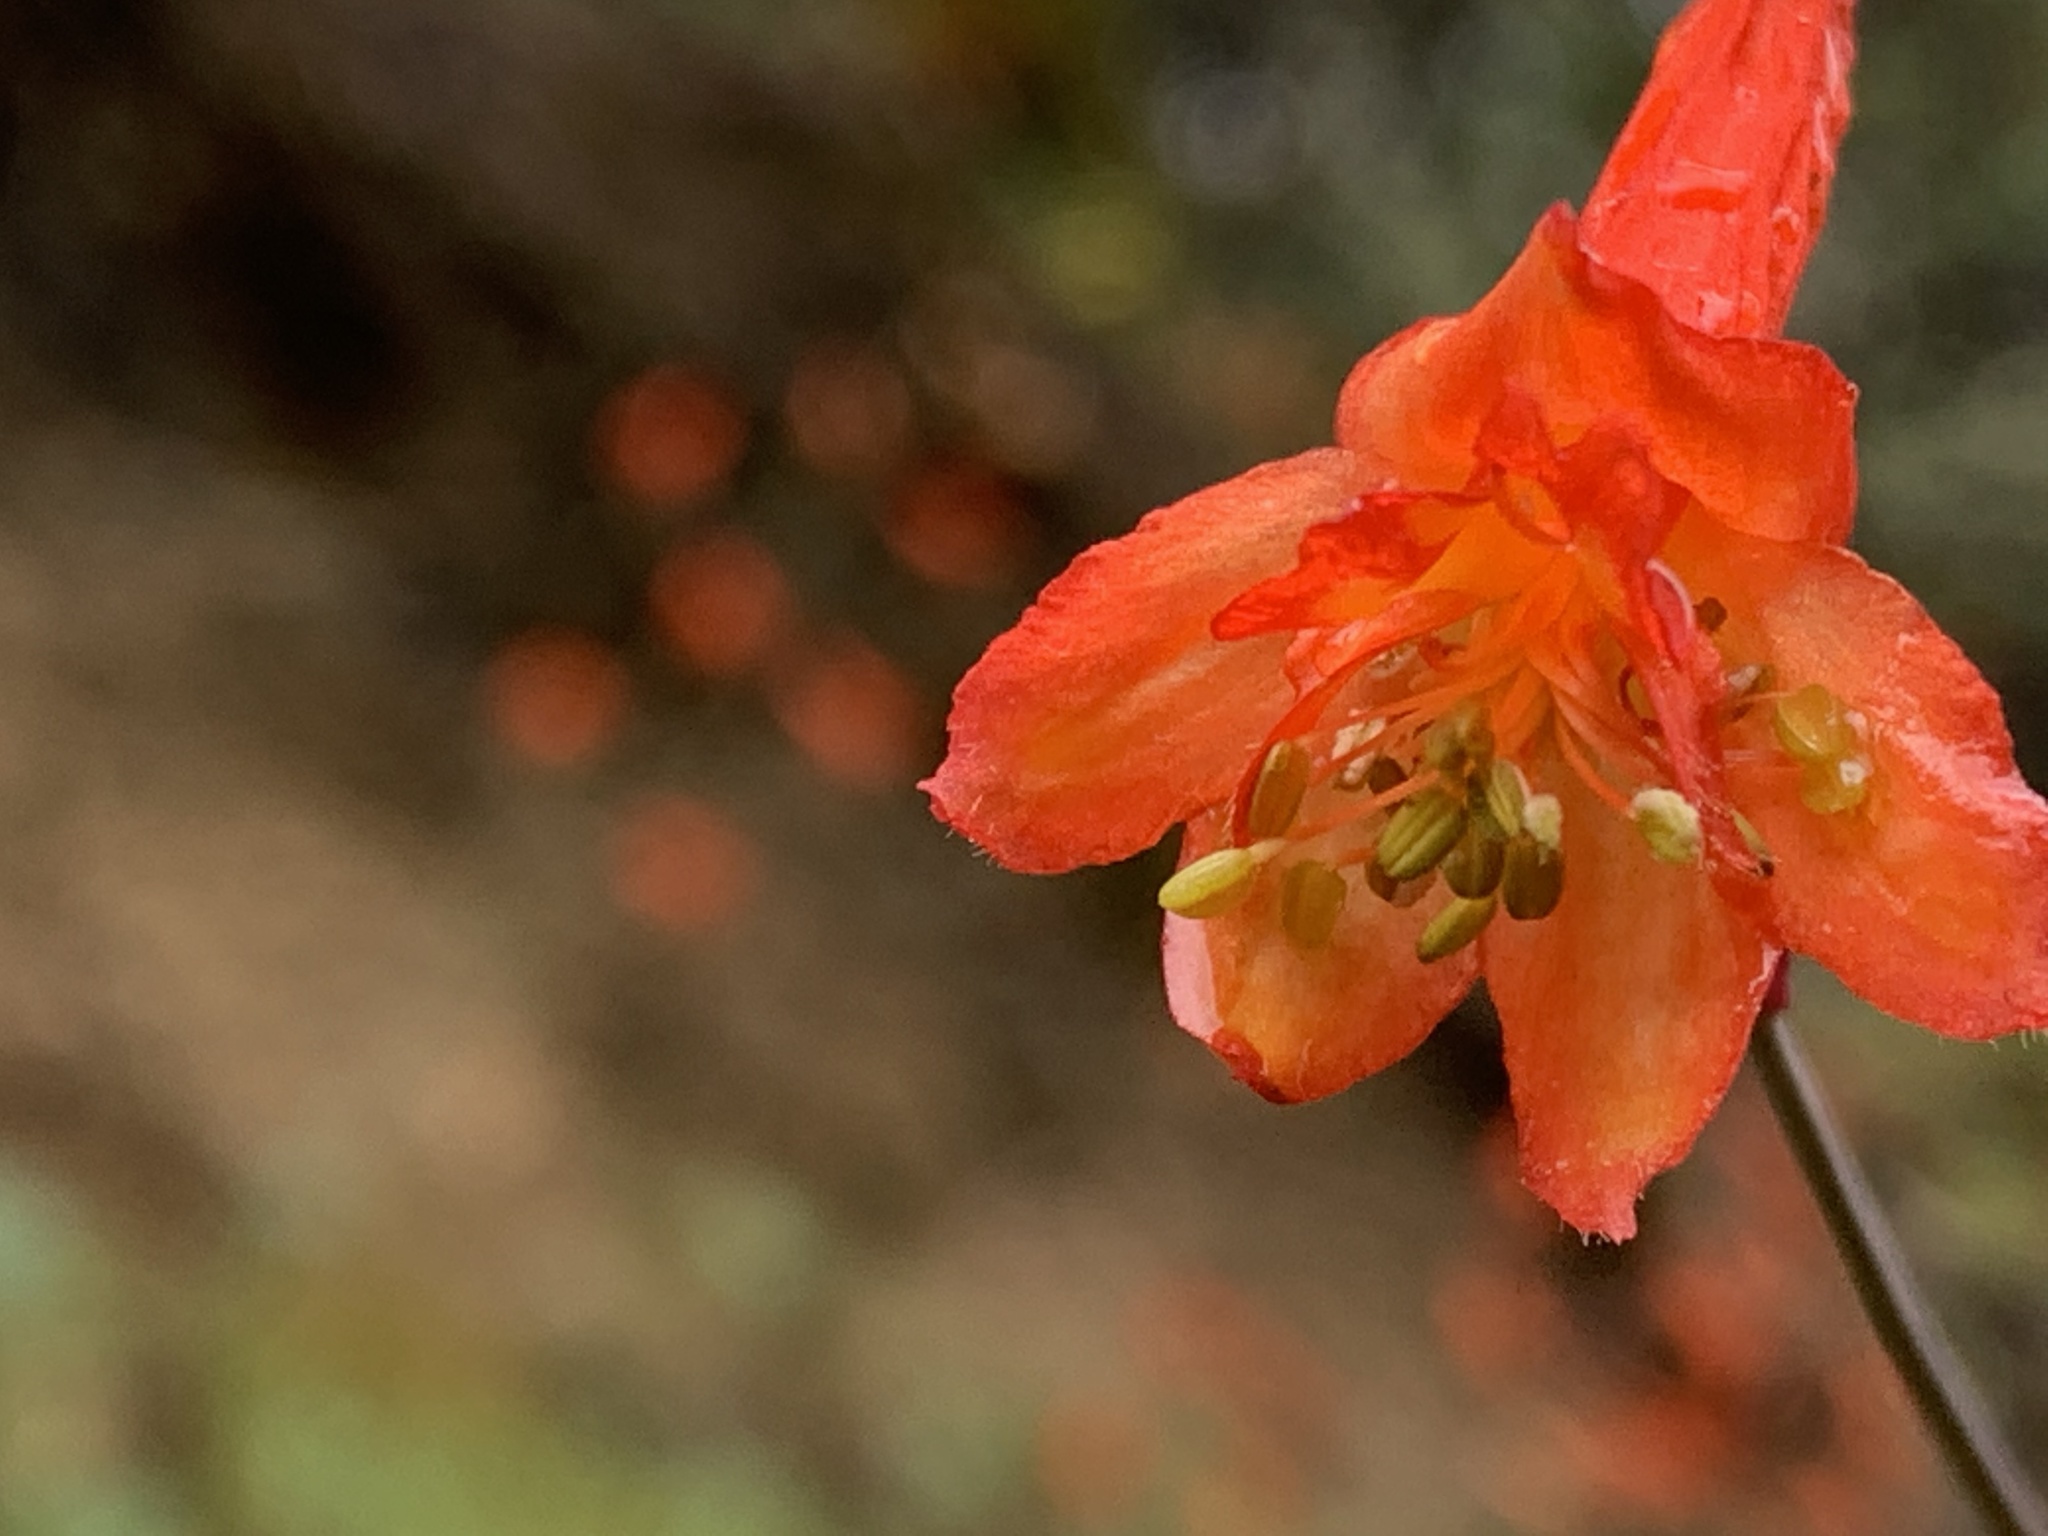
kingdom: Plantae
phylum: Tracheophyta
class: Magnoliopsida
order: Ranunculales
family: Ranunculaceae
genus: Delphinium
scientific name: Delphinium nudicaule
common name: Red larkspur
